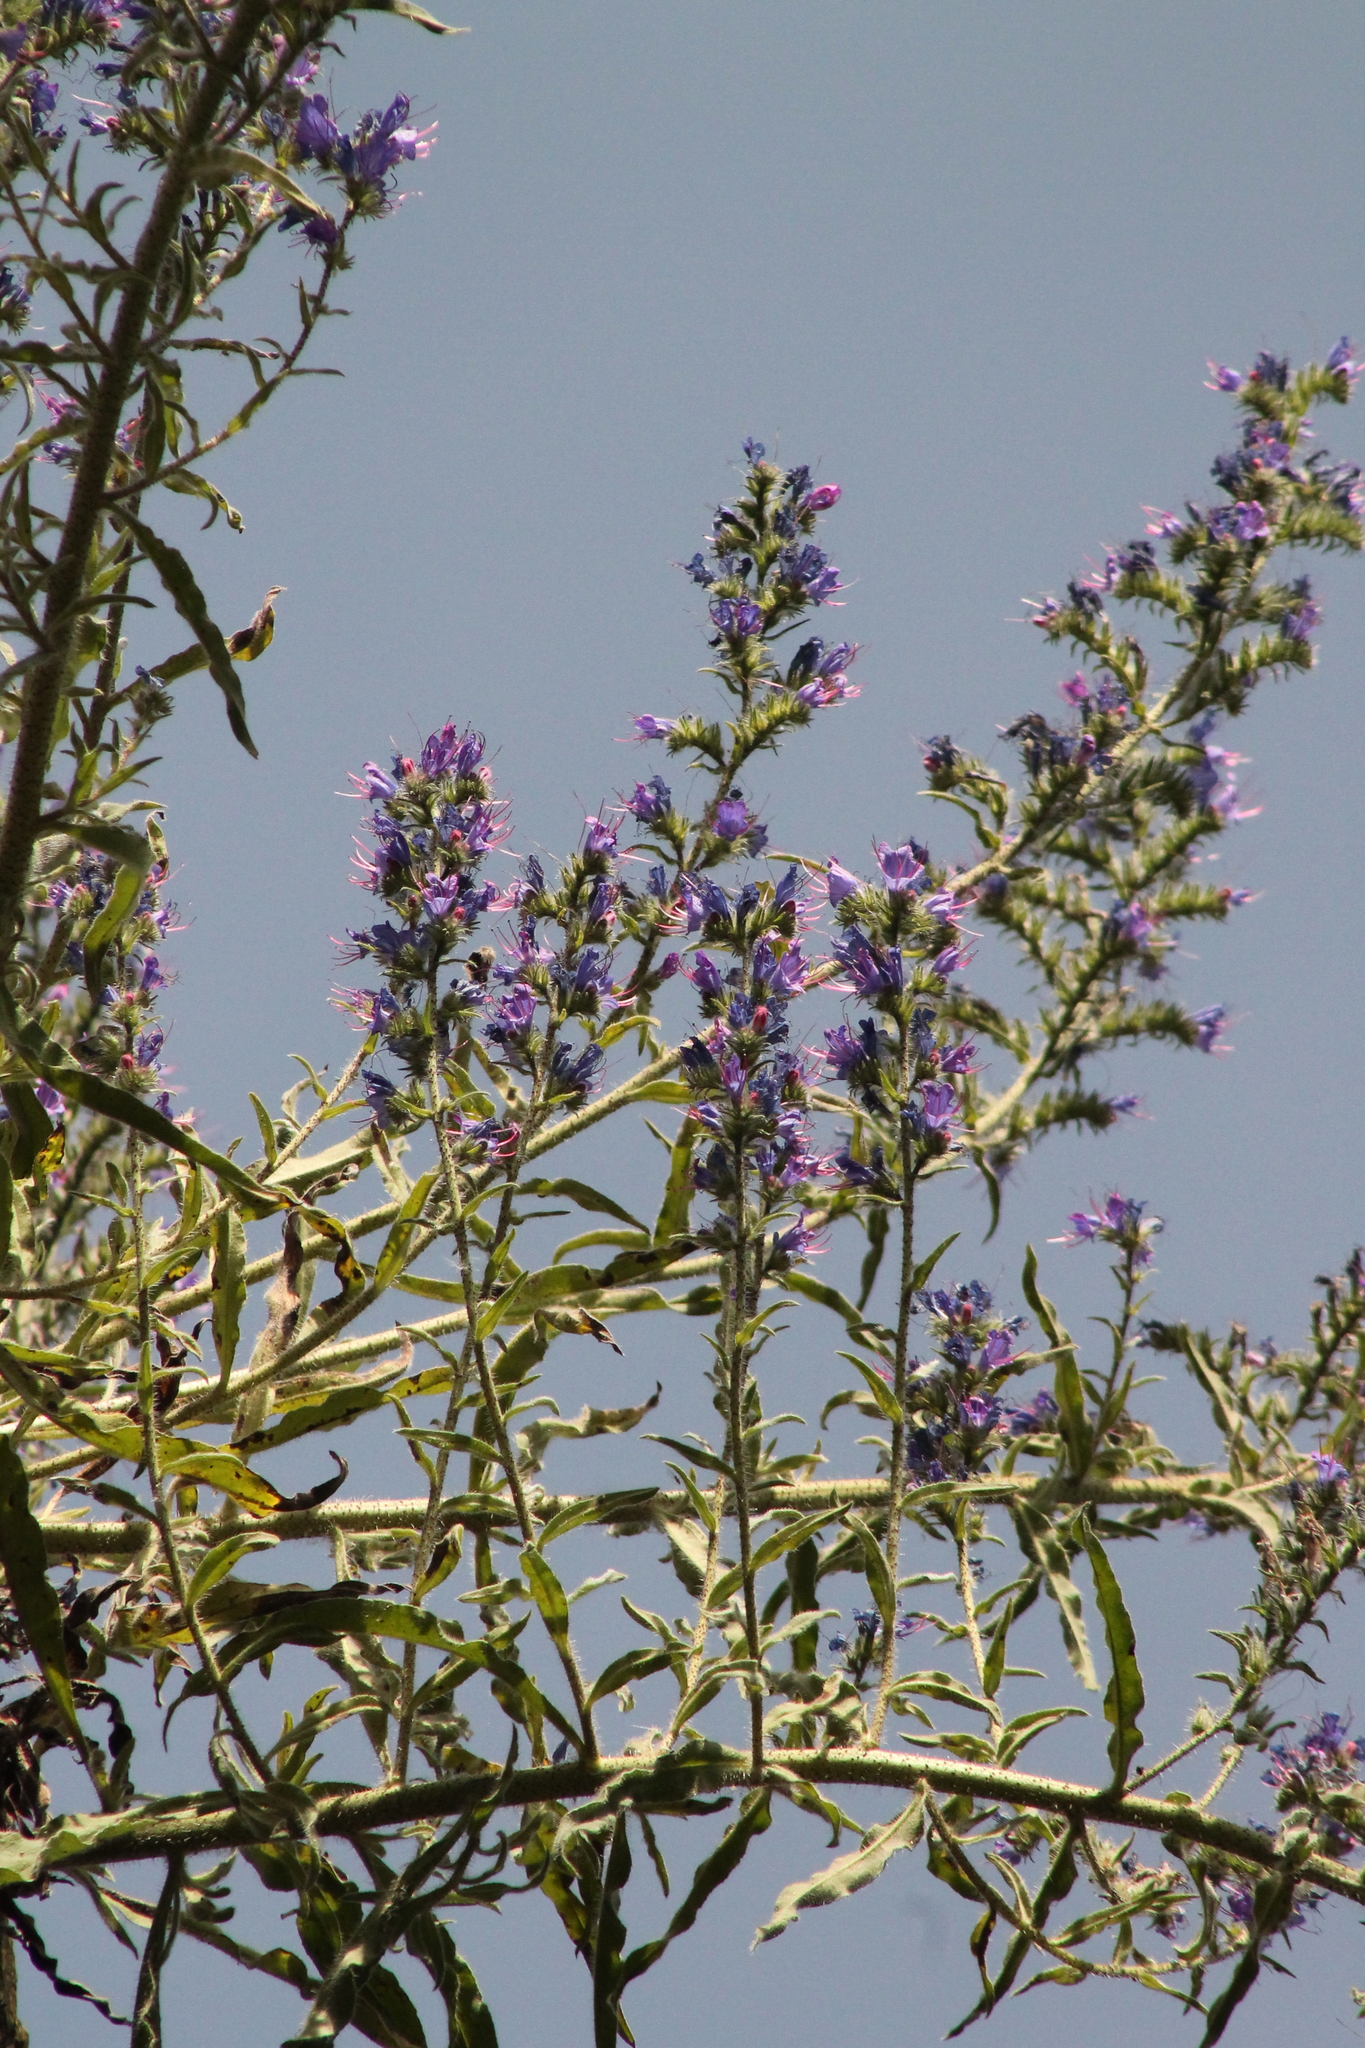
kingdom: Plantae
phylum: Tracheophyta
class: Magnoliopsida
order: Boraginales
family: Boraginaceae
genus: Echium
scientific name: Echium vulgare
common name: Common viper's bugloss
